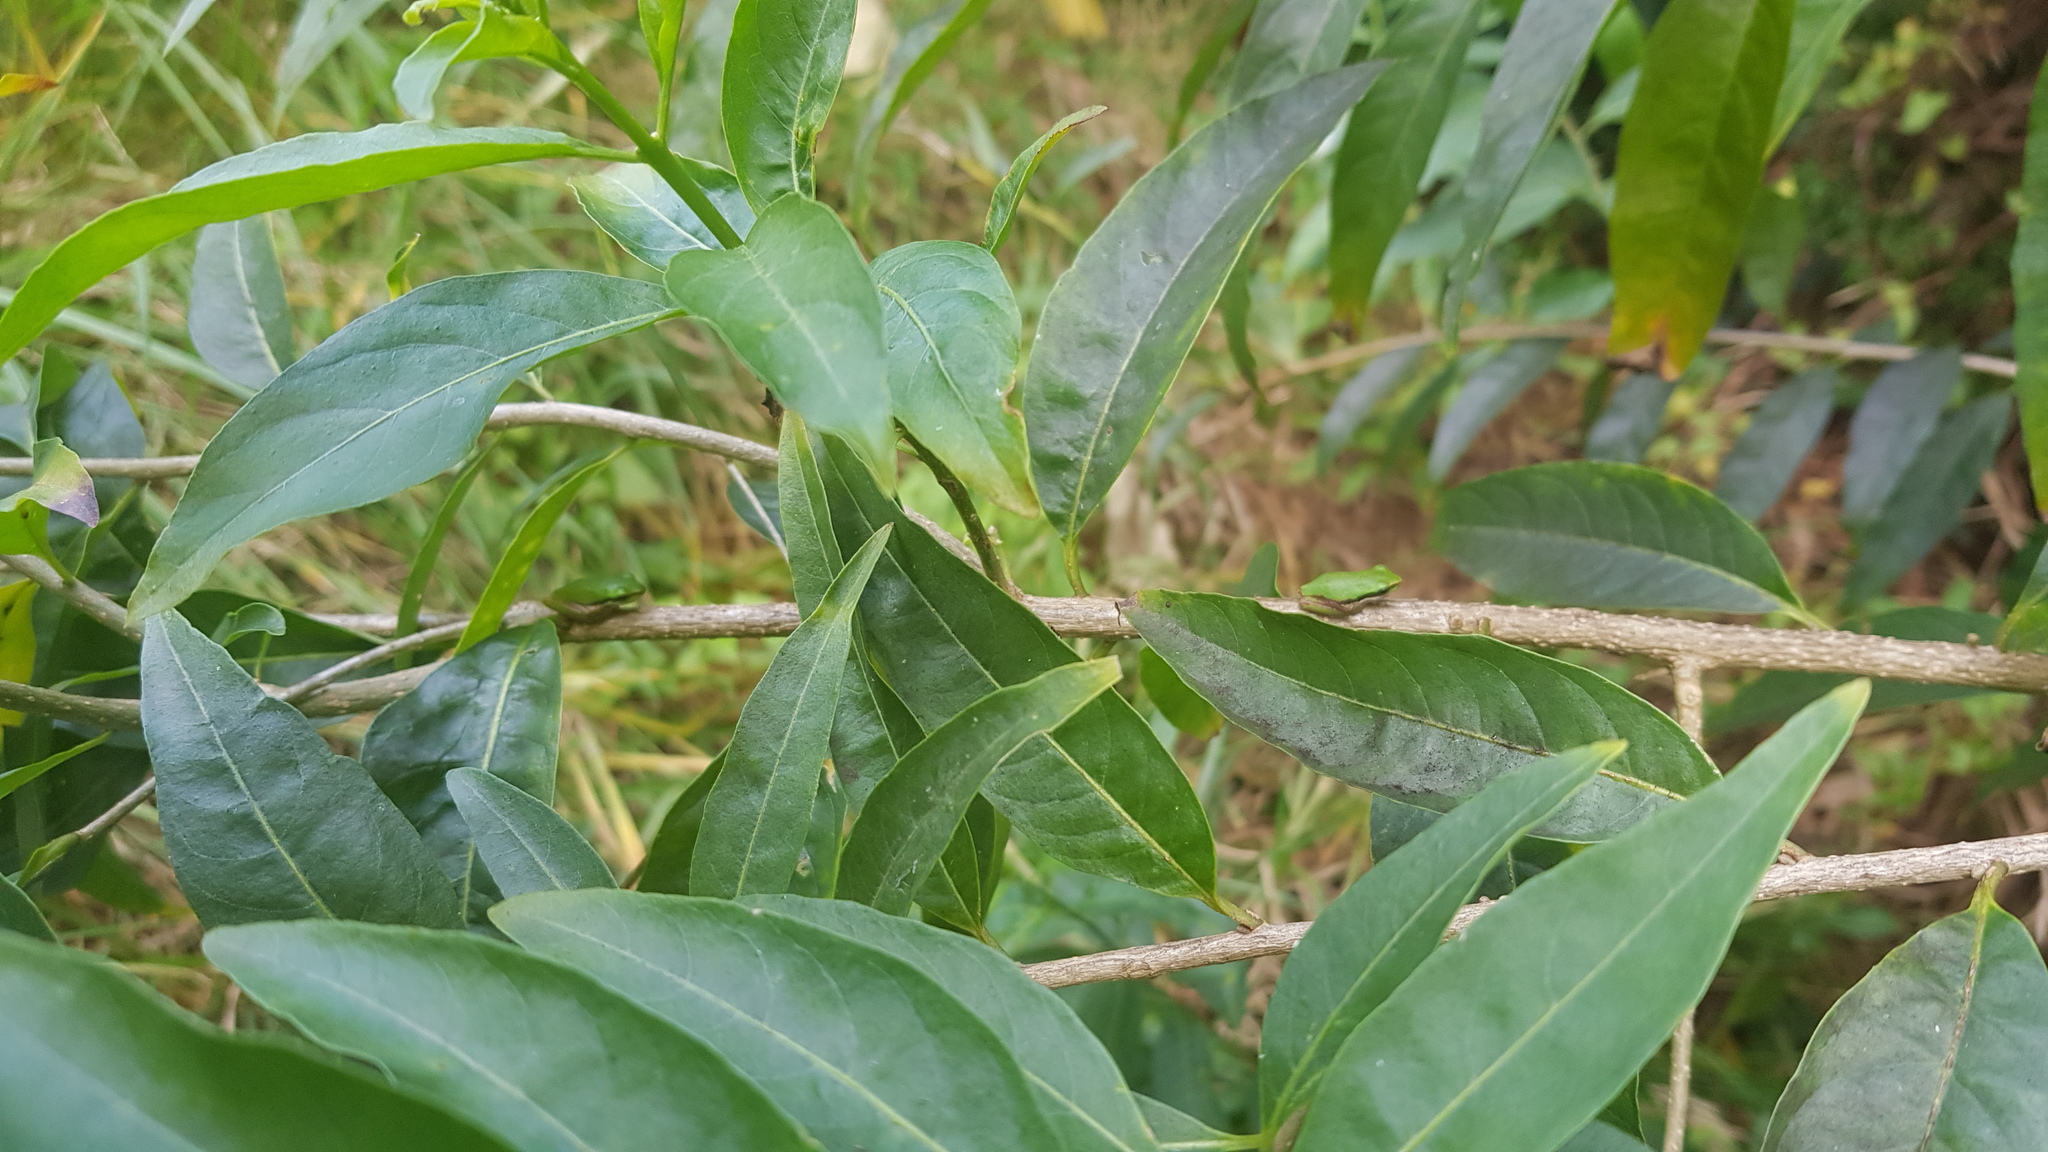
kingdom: Animalia
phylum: Chordata
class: Amphibia
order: Anura
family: Pelodryadidae
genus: Litoria
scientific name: Litoria fallax
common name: Eastern dwarf treefrog
